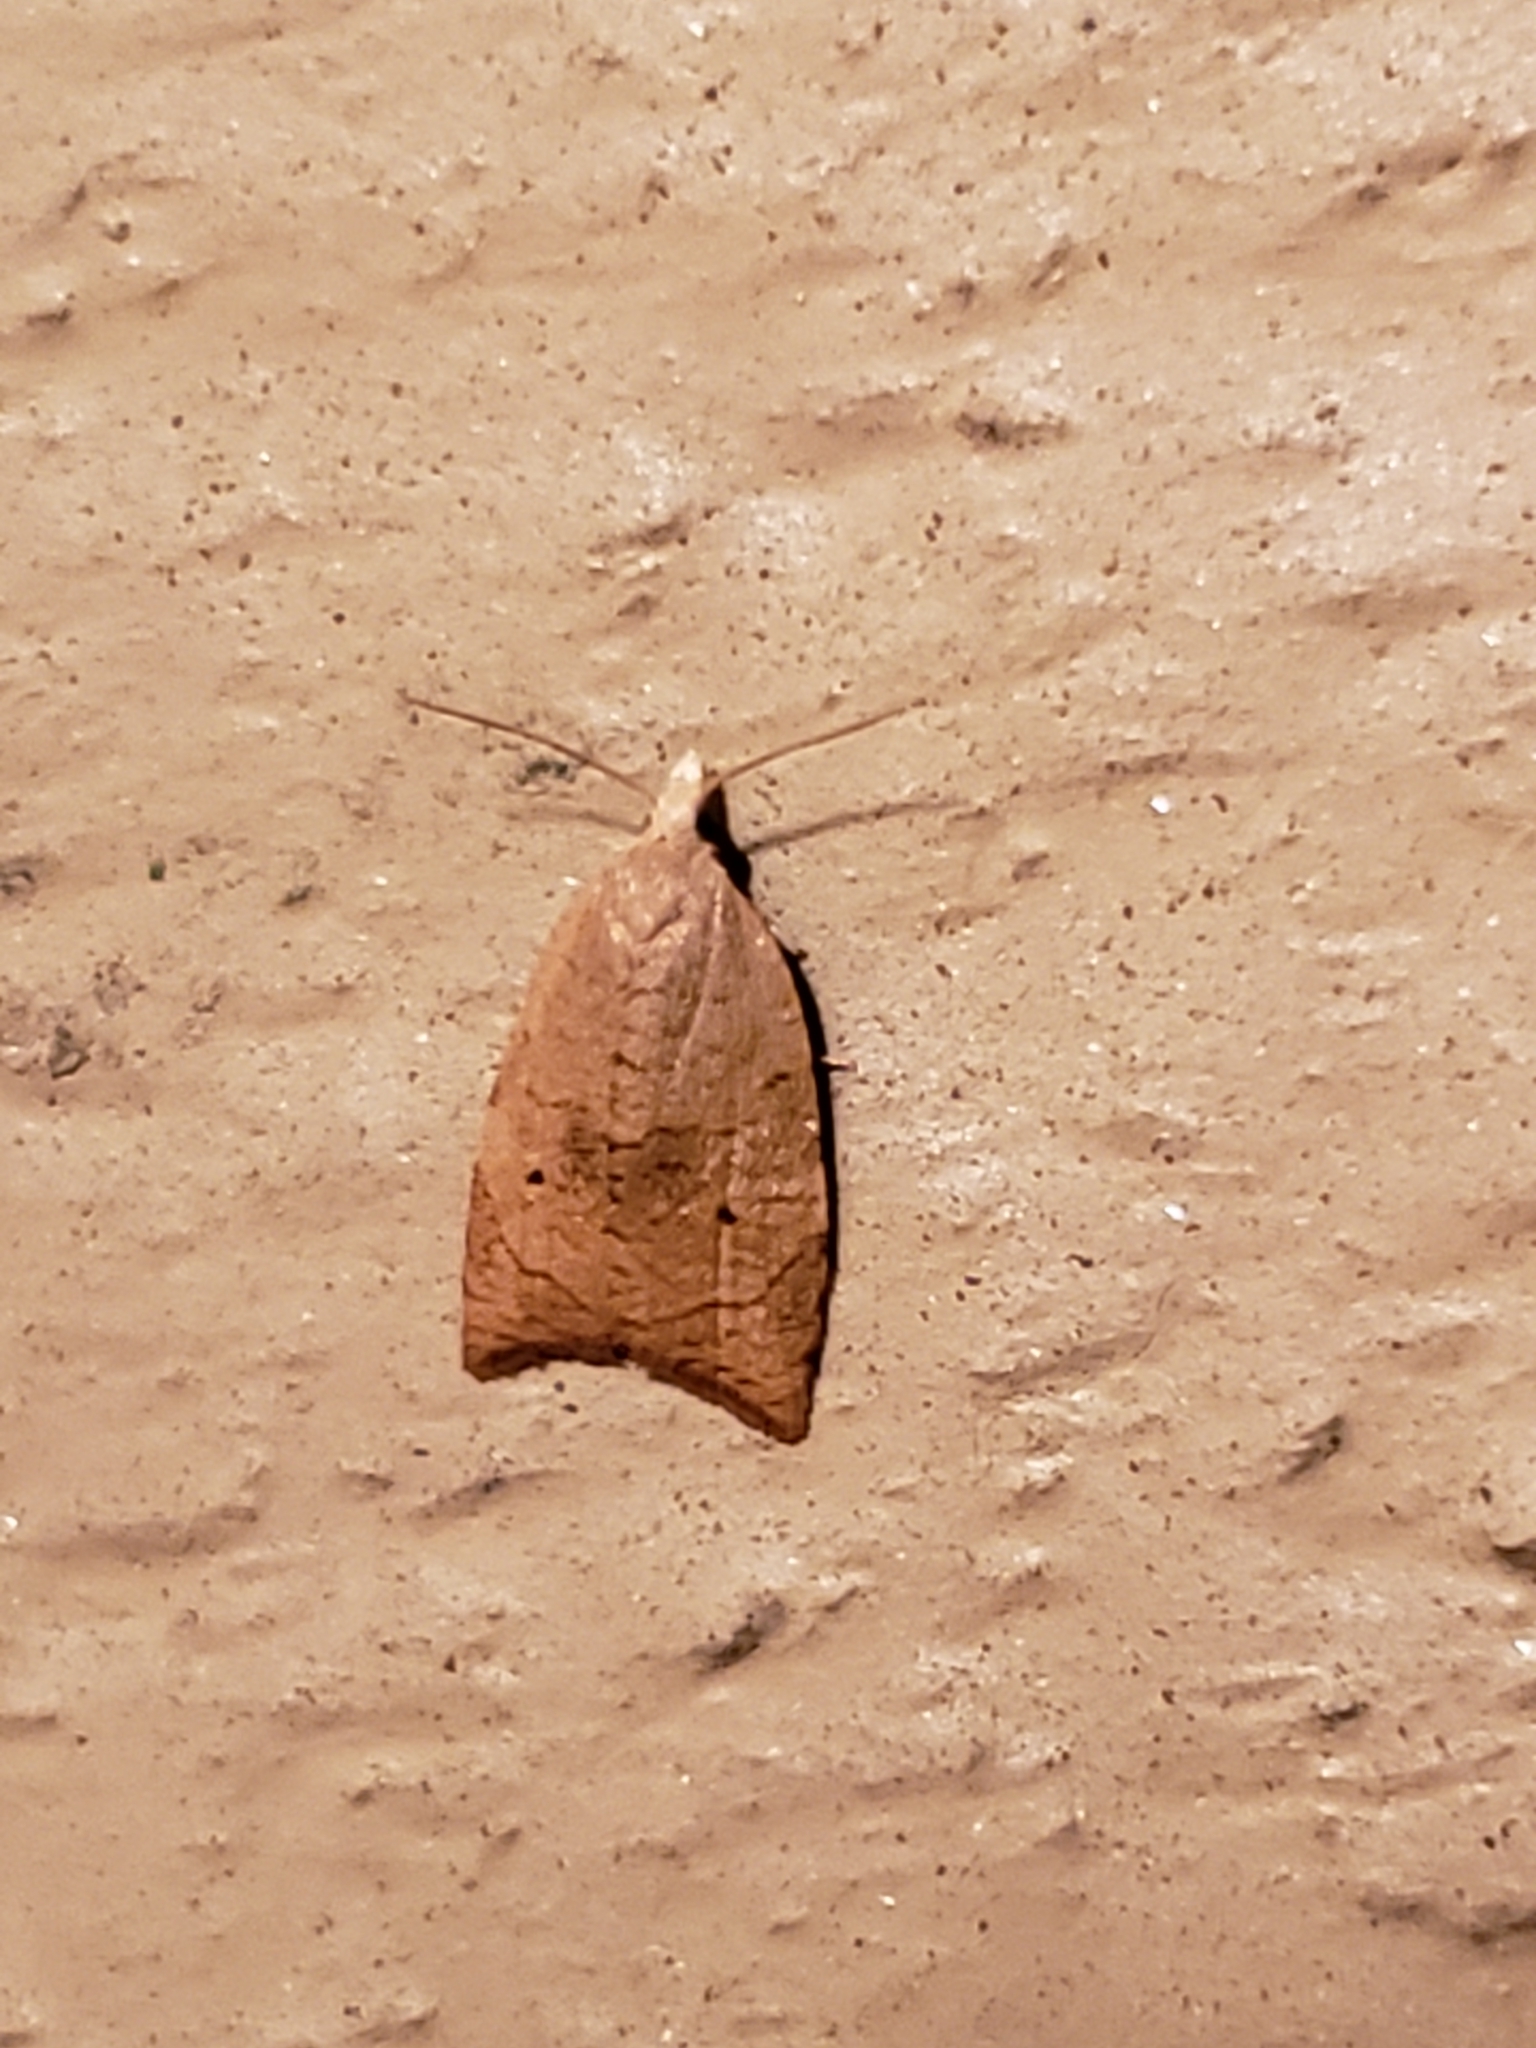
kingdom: Animalia
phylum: Arthropoda
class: Insecta
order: Lepidoptera
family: Tortricidae
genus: Coelostathma
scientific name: Coelostathma discopunctana
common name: Batman moth
